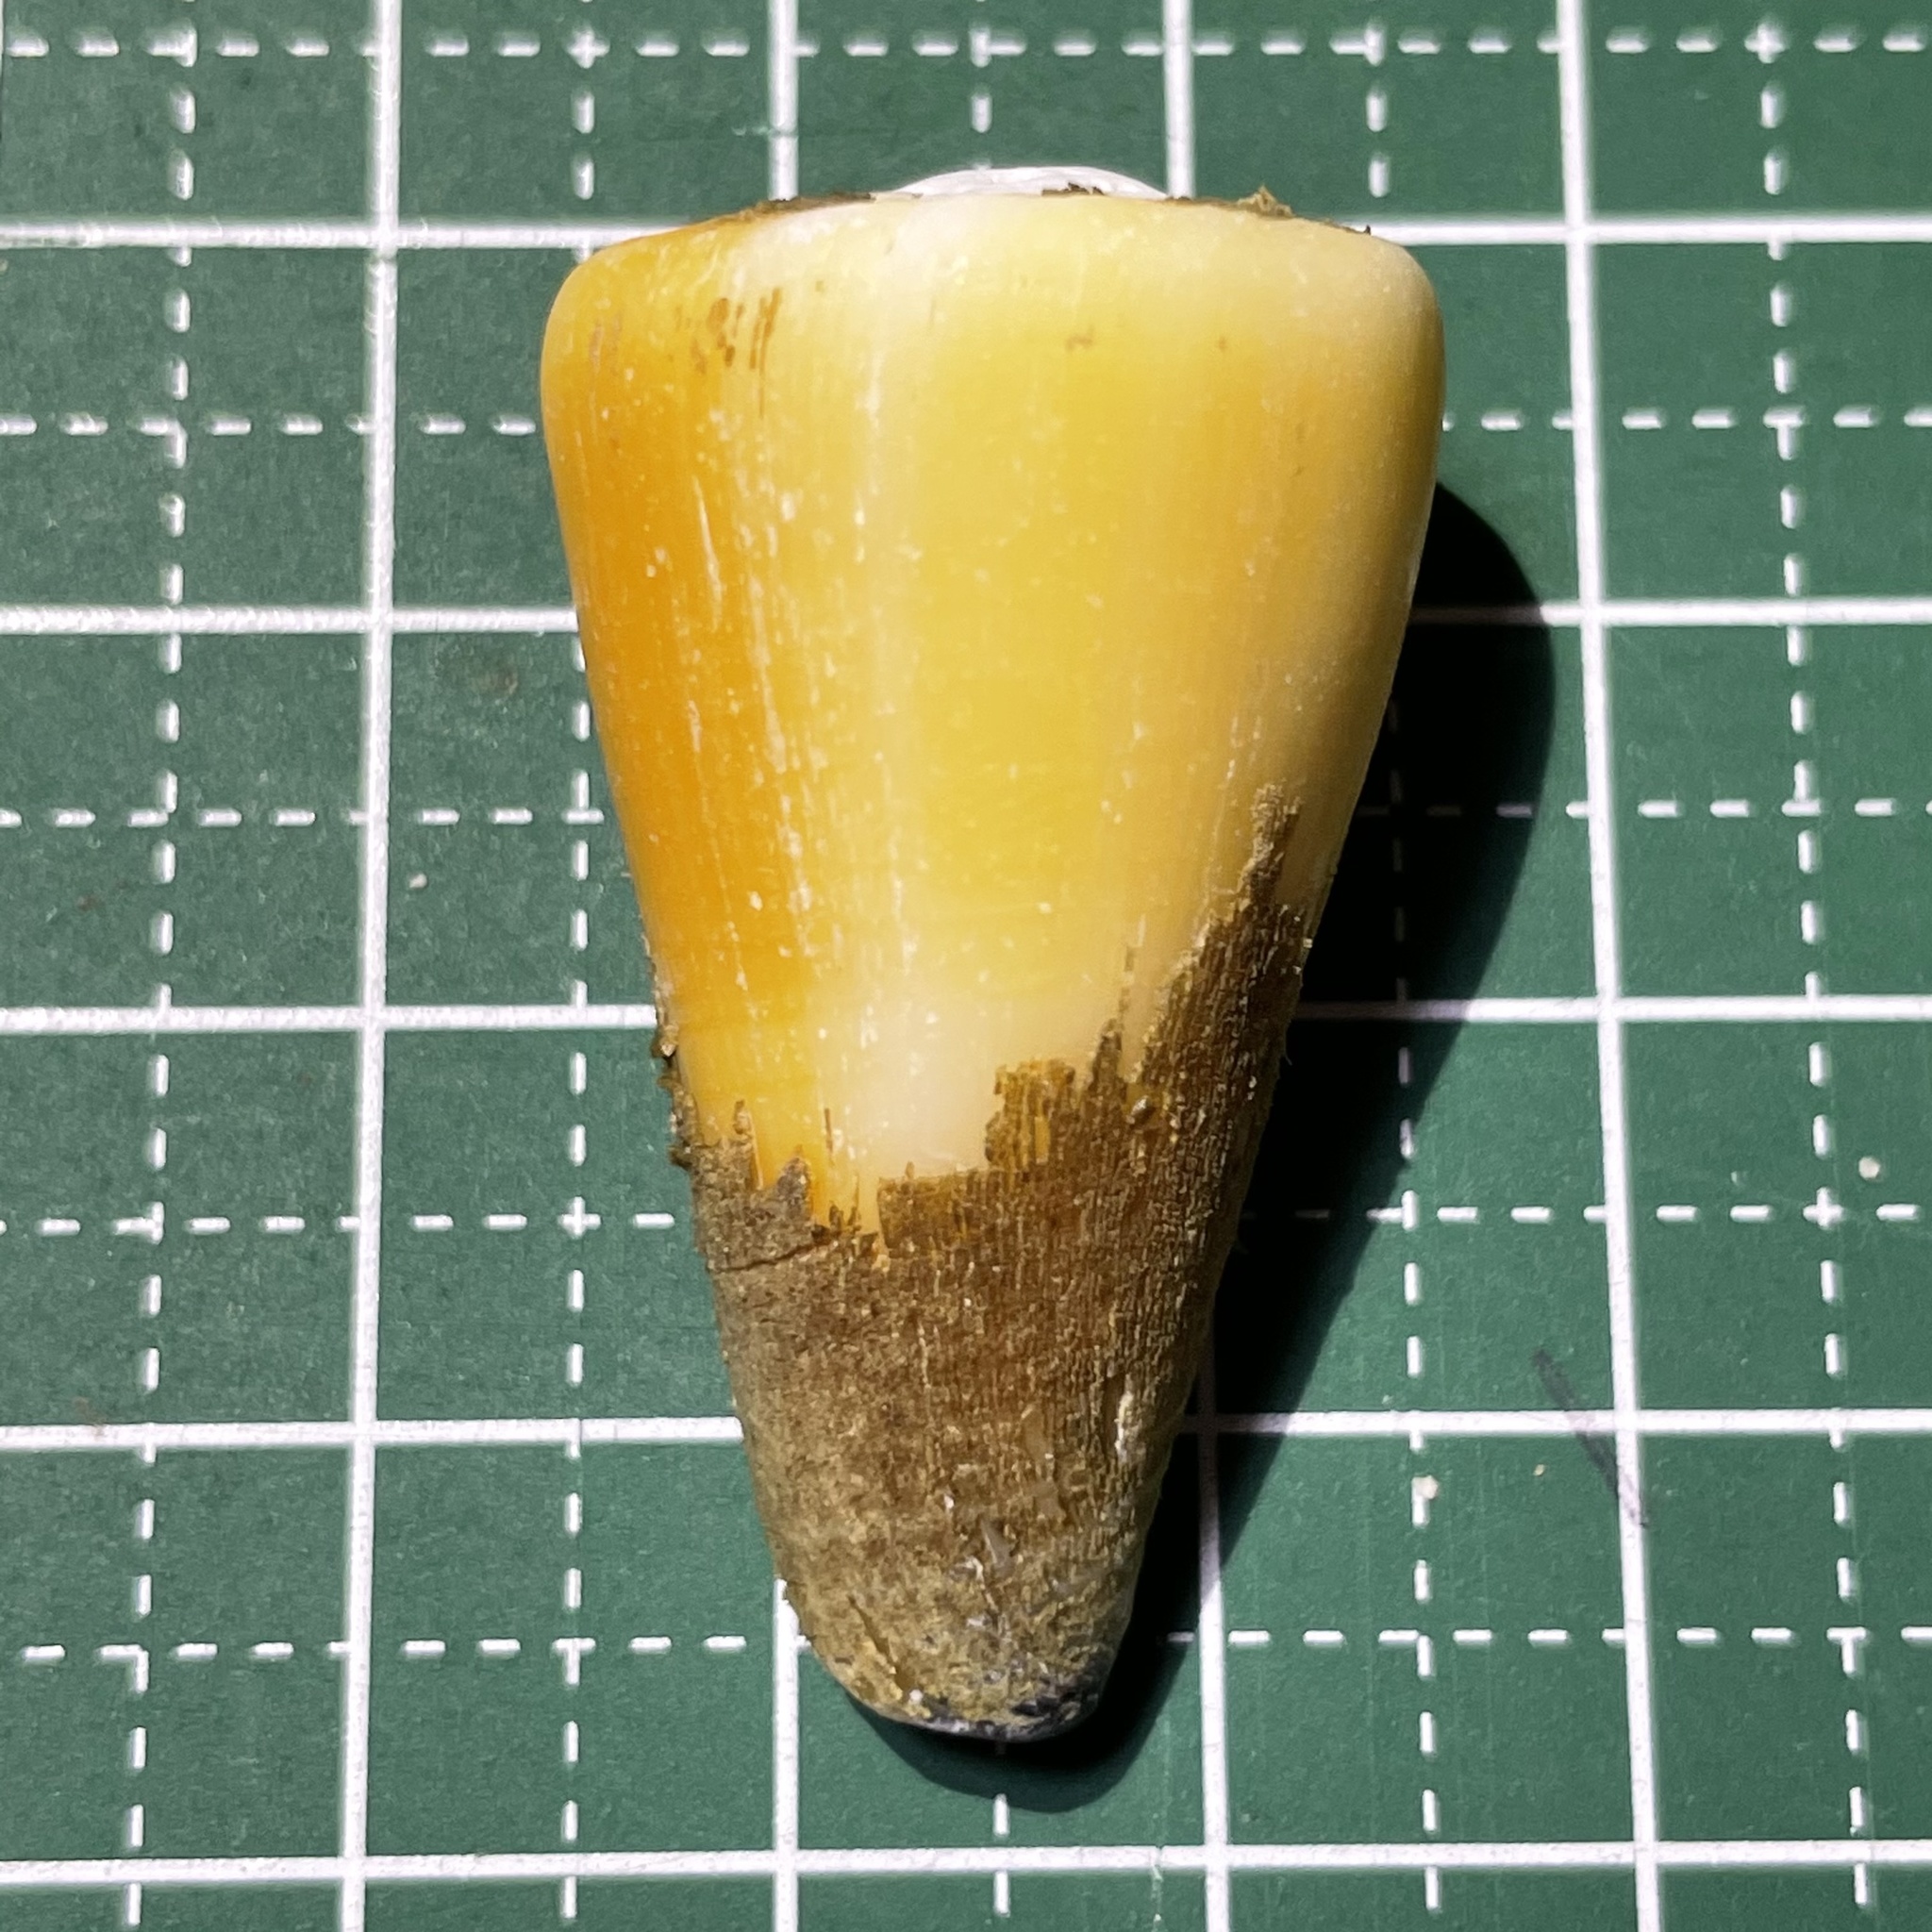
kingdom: Animalia
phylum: Mollusca
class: Gastropoda
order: Neogastropoda
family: Conidae
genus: Conus
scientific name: Conus emaciatus
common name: False virgin cone
